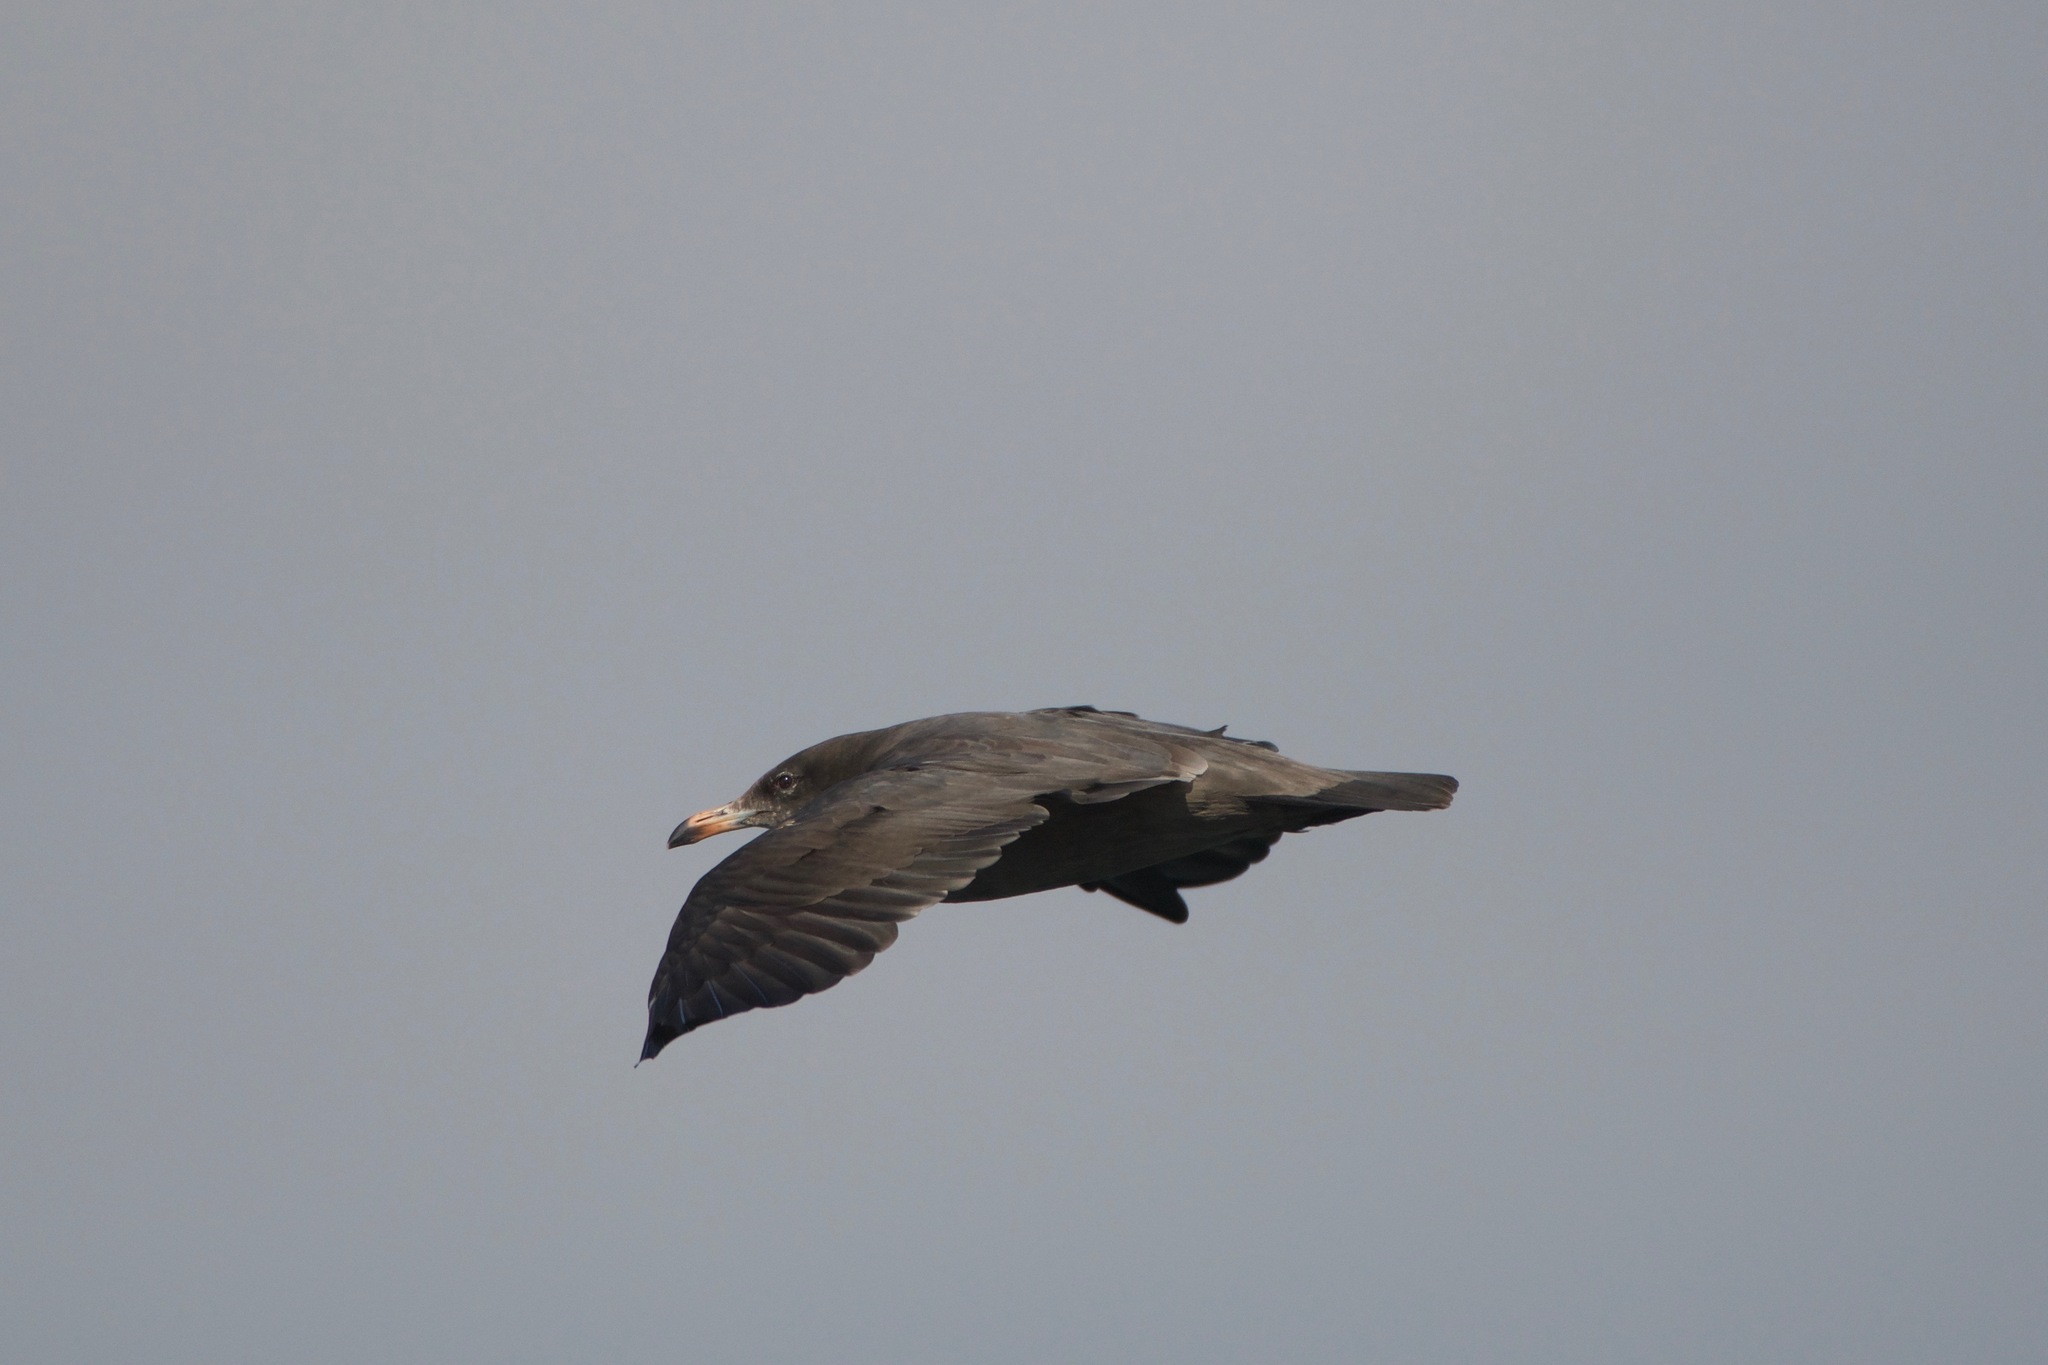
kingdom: Animalia
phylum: Chordata
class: Aves
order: Charadriiformes
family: Laridae
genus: Larus
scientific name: Larus heermanni
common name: Heermann's gull
